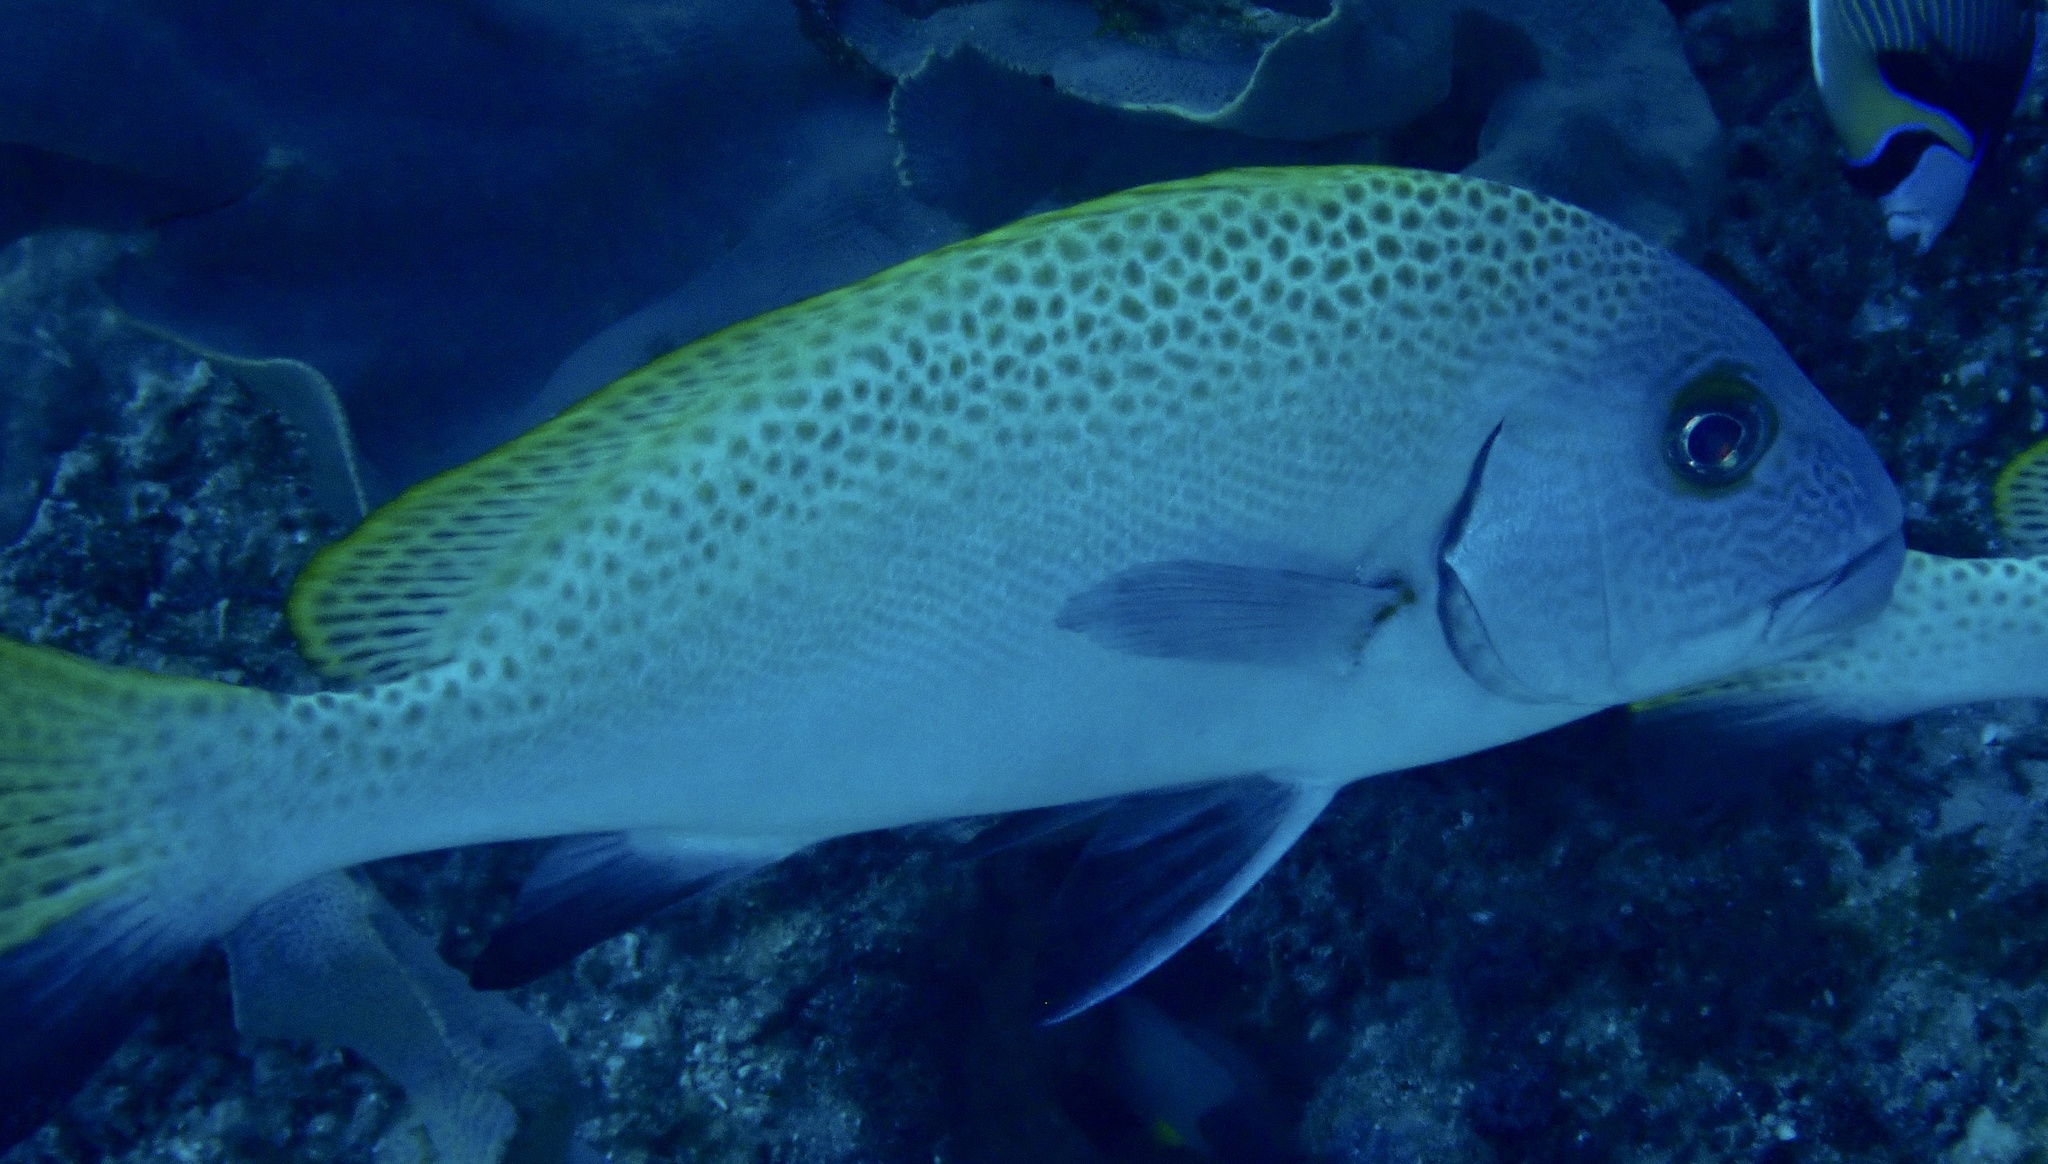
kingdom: Animalia
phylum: Chordata
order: Perciformes
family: Haemulidae
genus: Diagramma
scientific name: Diagramma melanacrum
